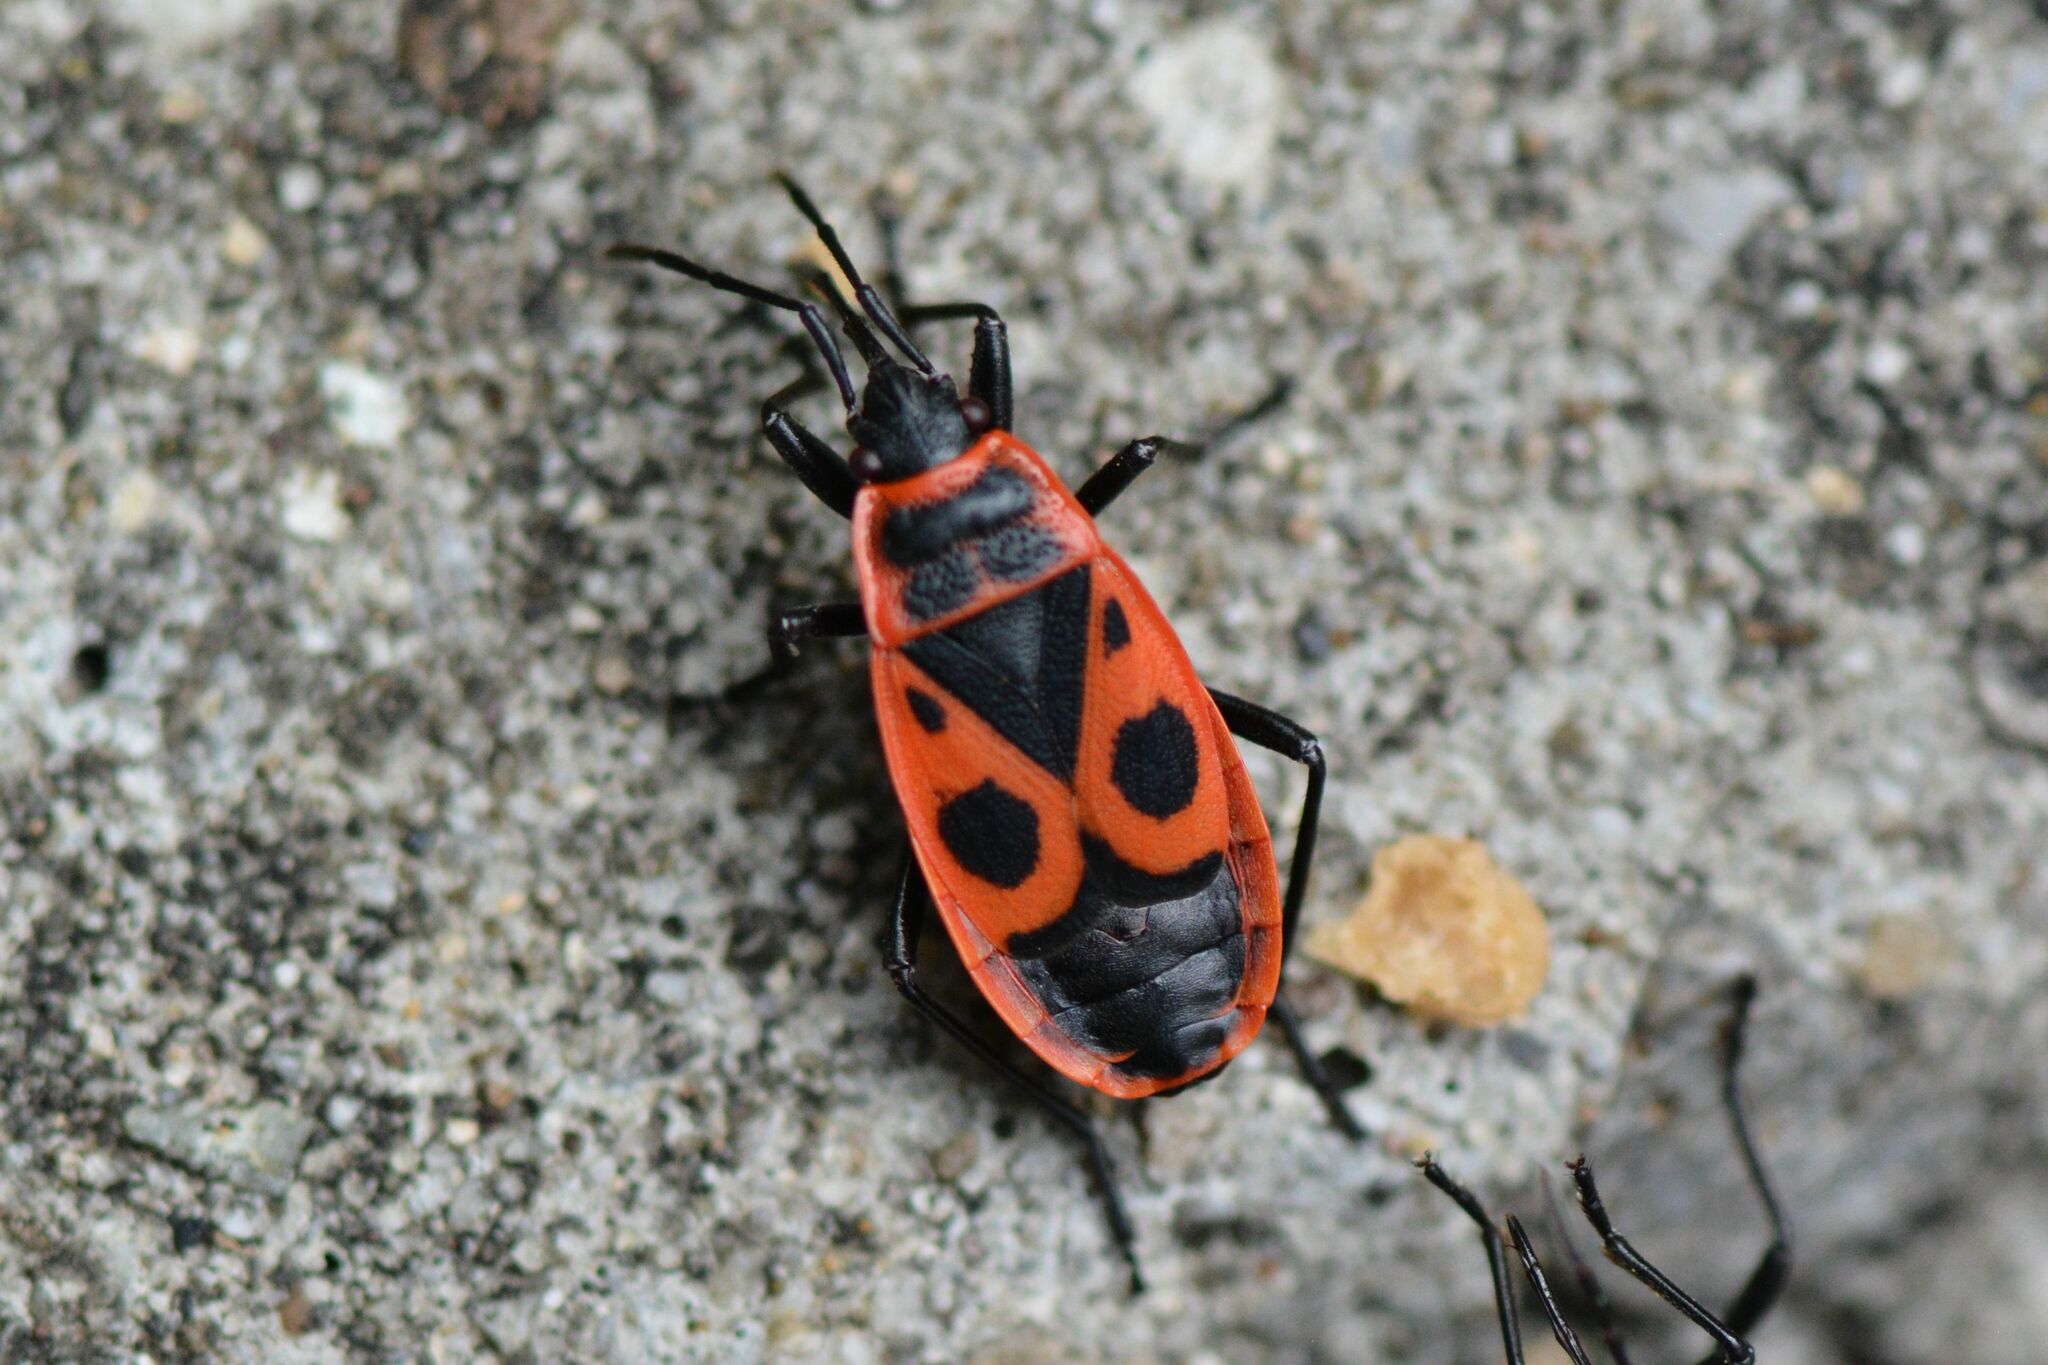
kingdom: Animalia
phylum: Arthropoda
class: Insecta
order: Hemiptera
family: Pyrrhocoridae
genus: Pyrrhocoris
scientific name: Pyrrhocoris apterus
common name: Firebug
